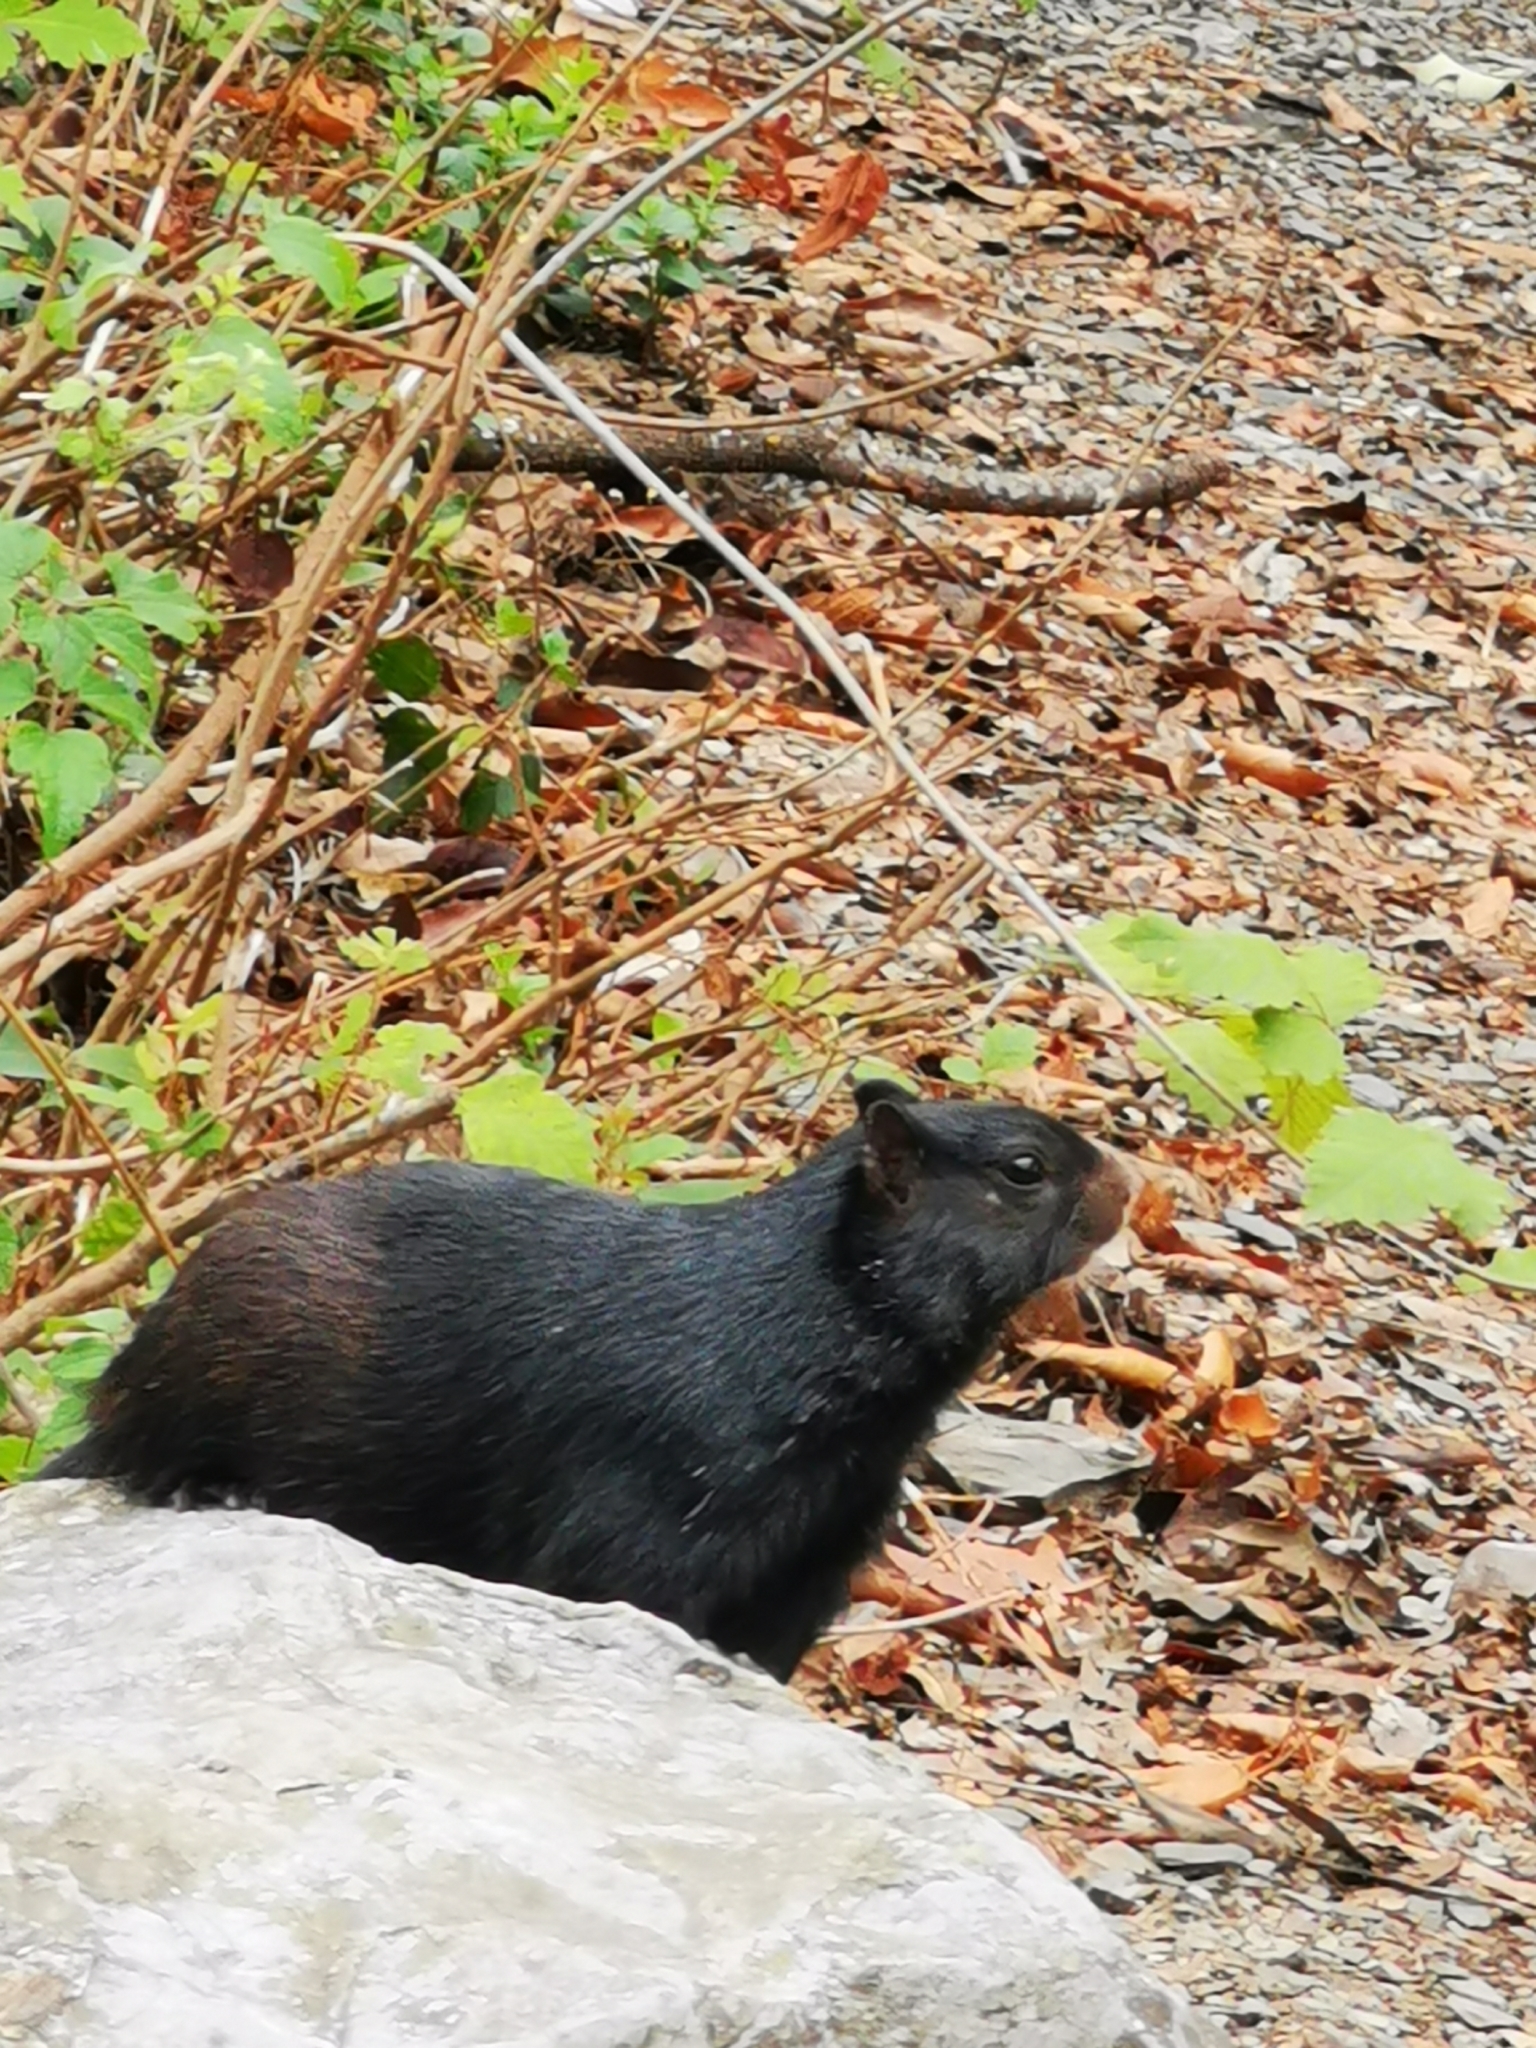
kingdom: Animalia
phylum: Chordata
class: Mammalia
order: Rodentia
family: Sciuridae
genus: Otospermophilus
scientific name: Otospermophilus variegatus
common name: Rock squirrel
